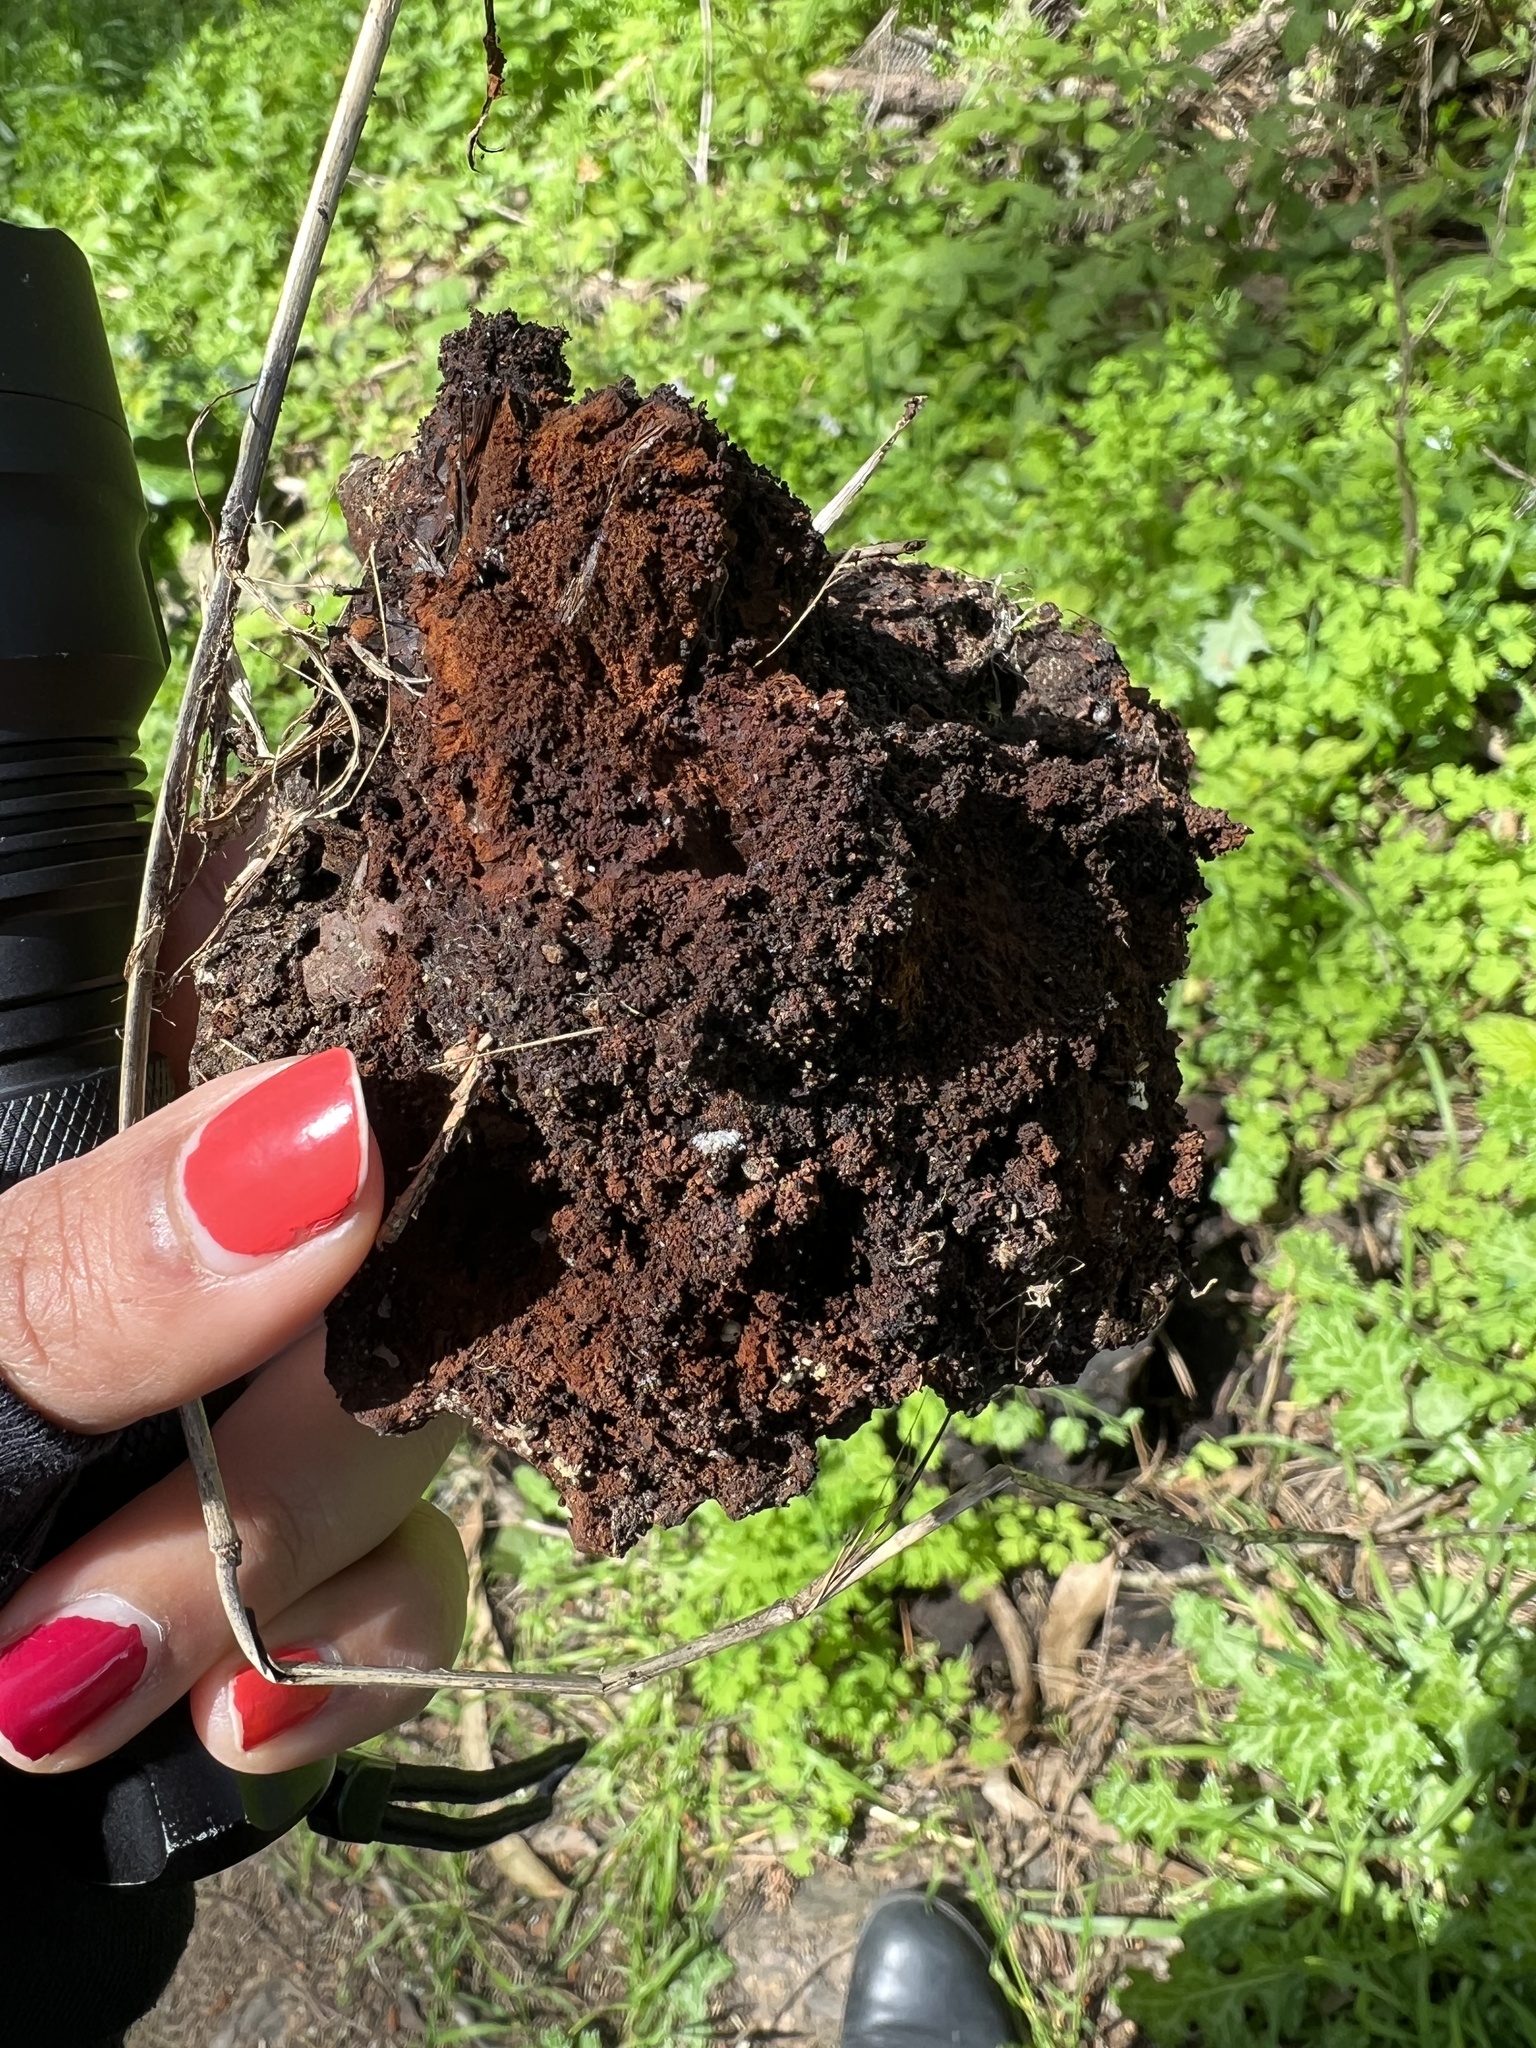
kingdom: Fungi
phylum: Basidiomycota
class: Agaricomycetes
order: Polyporales
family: Laetiporaceae
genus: Phaeolus
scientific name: Phaeolus schweinitzii
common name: Dyer's mazegill
